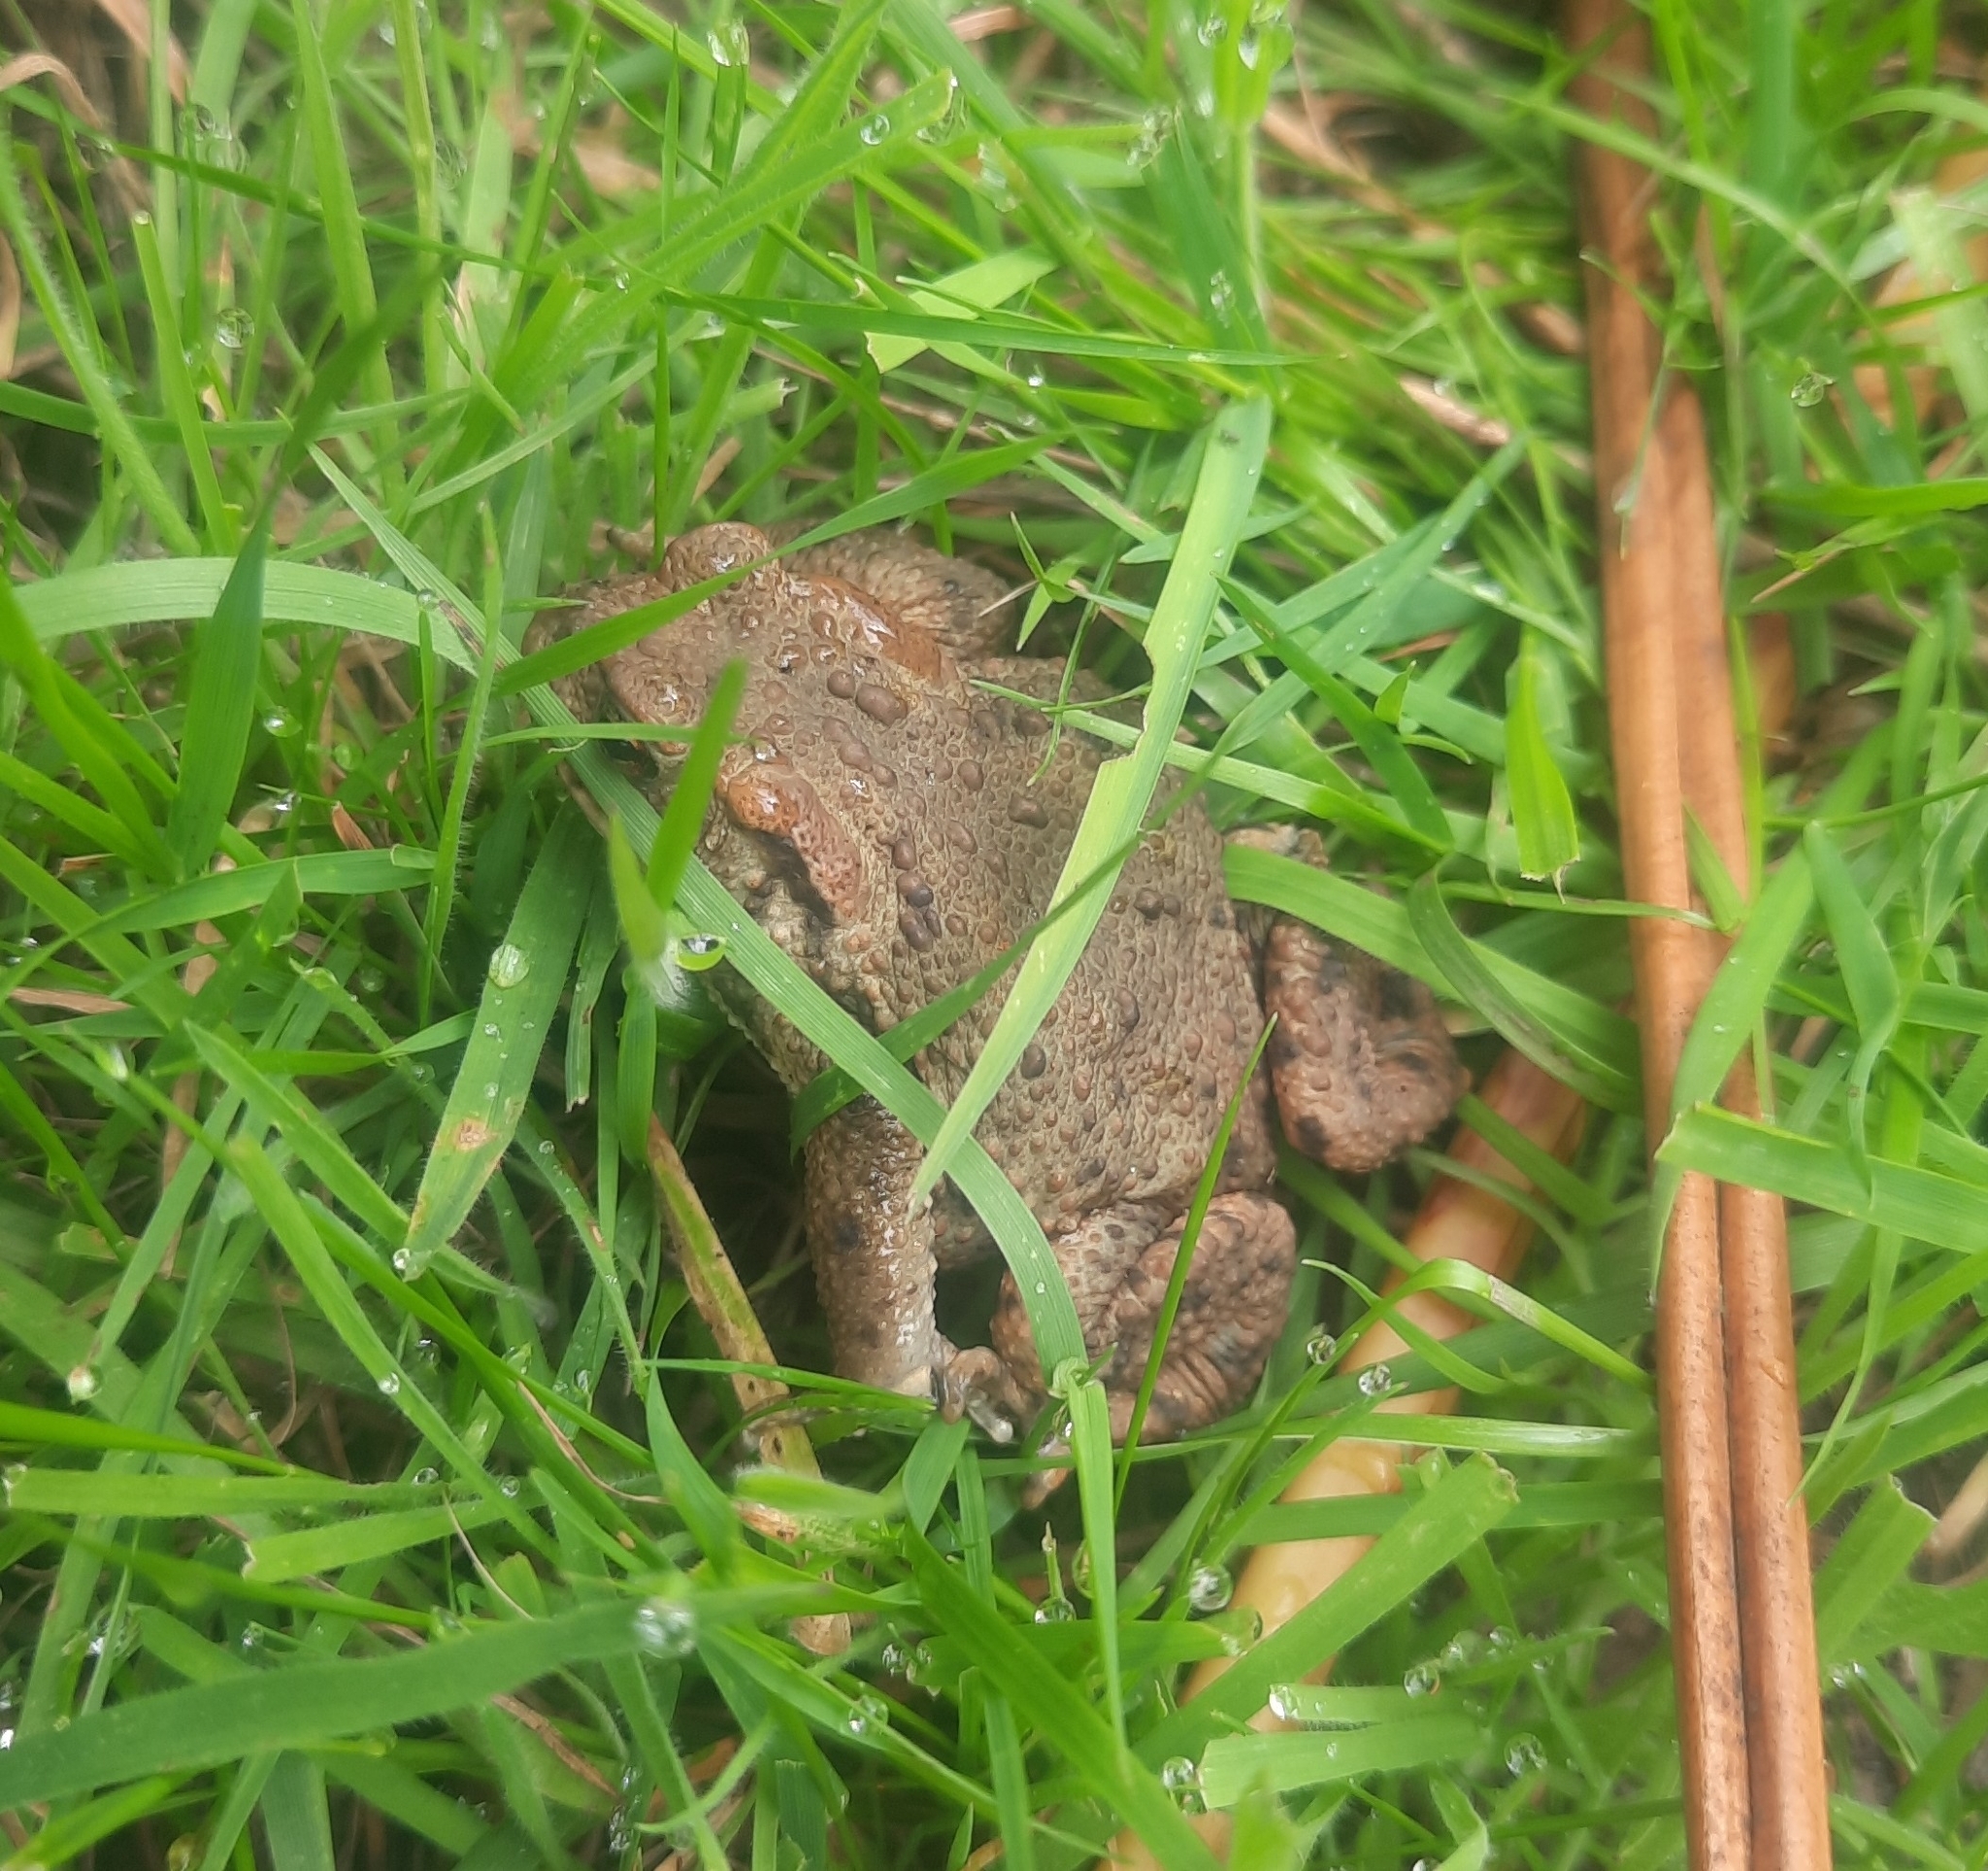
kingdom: Animalia
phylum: Chordata
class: Amphibia
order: Anura
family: Bufonidae
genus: Bufo
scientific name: Bufo bufo
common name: Common toad
